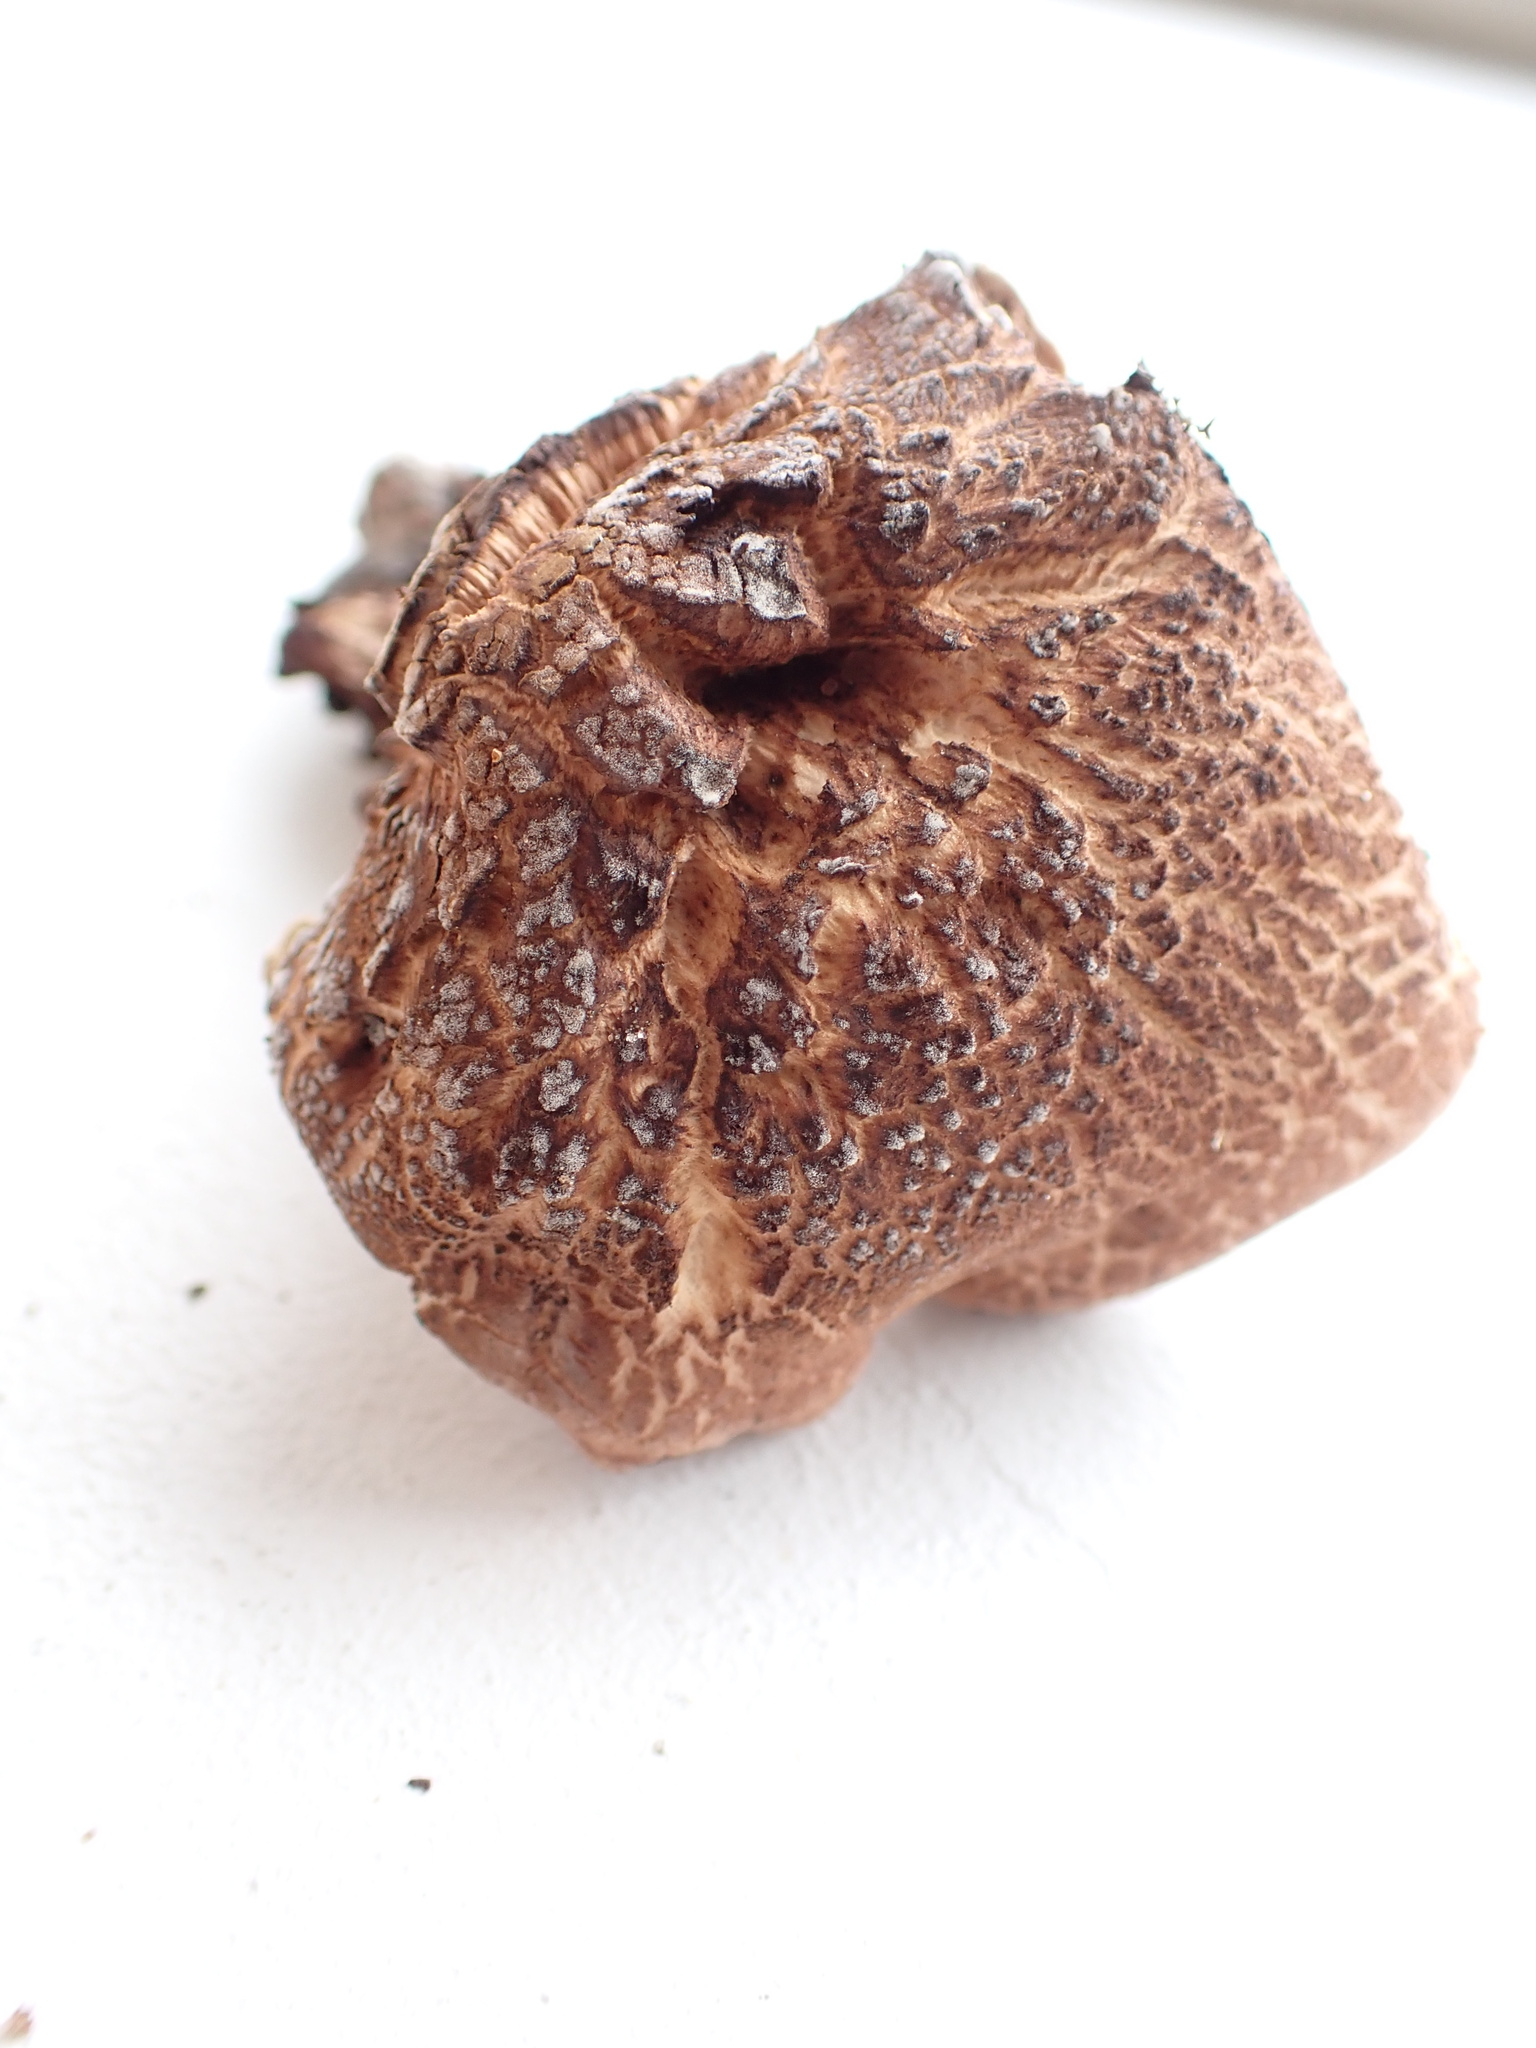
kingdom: Fungi
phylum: Basidiomycota
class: Agaricomycetes
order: Thelephorales
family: Bankeraceae
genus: Hydnellum
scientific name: Hydnellum scabrosum
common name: Bitter tooth
